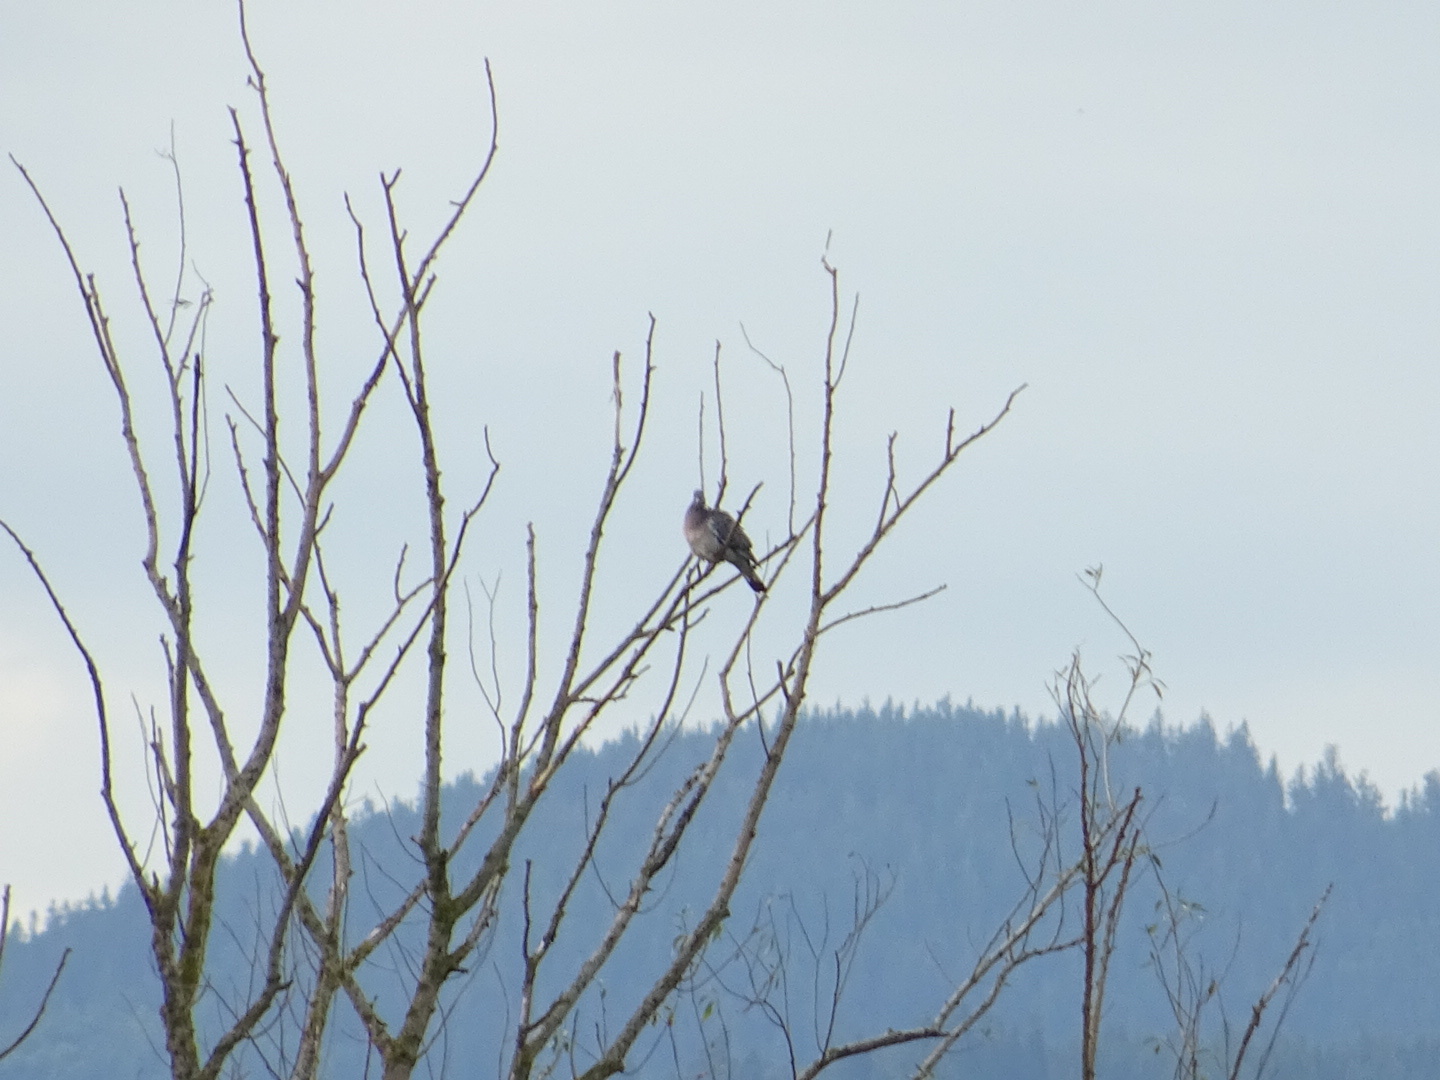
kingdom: Animalia
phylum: Chordata
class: Aves
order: Columbiformes
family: Columbidae
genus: Columba
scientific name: Columba palumbus
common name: Common wood pigeon
